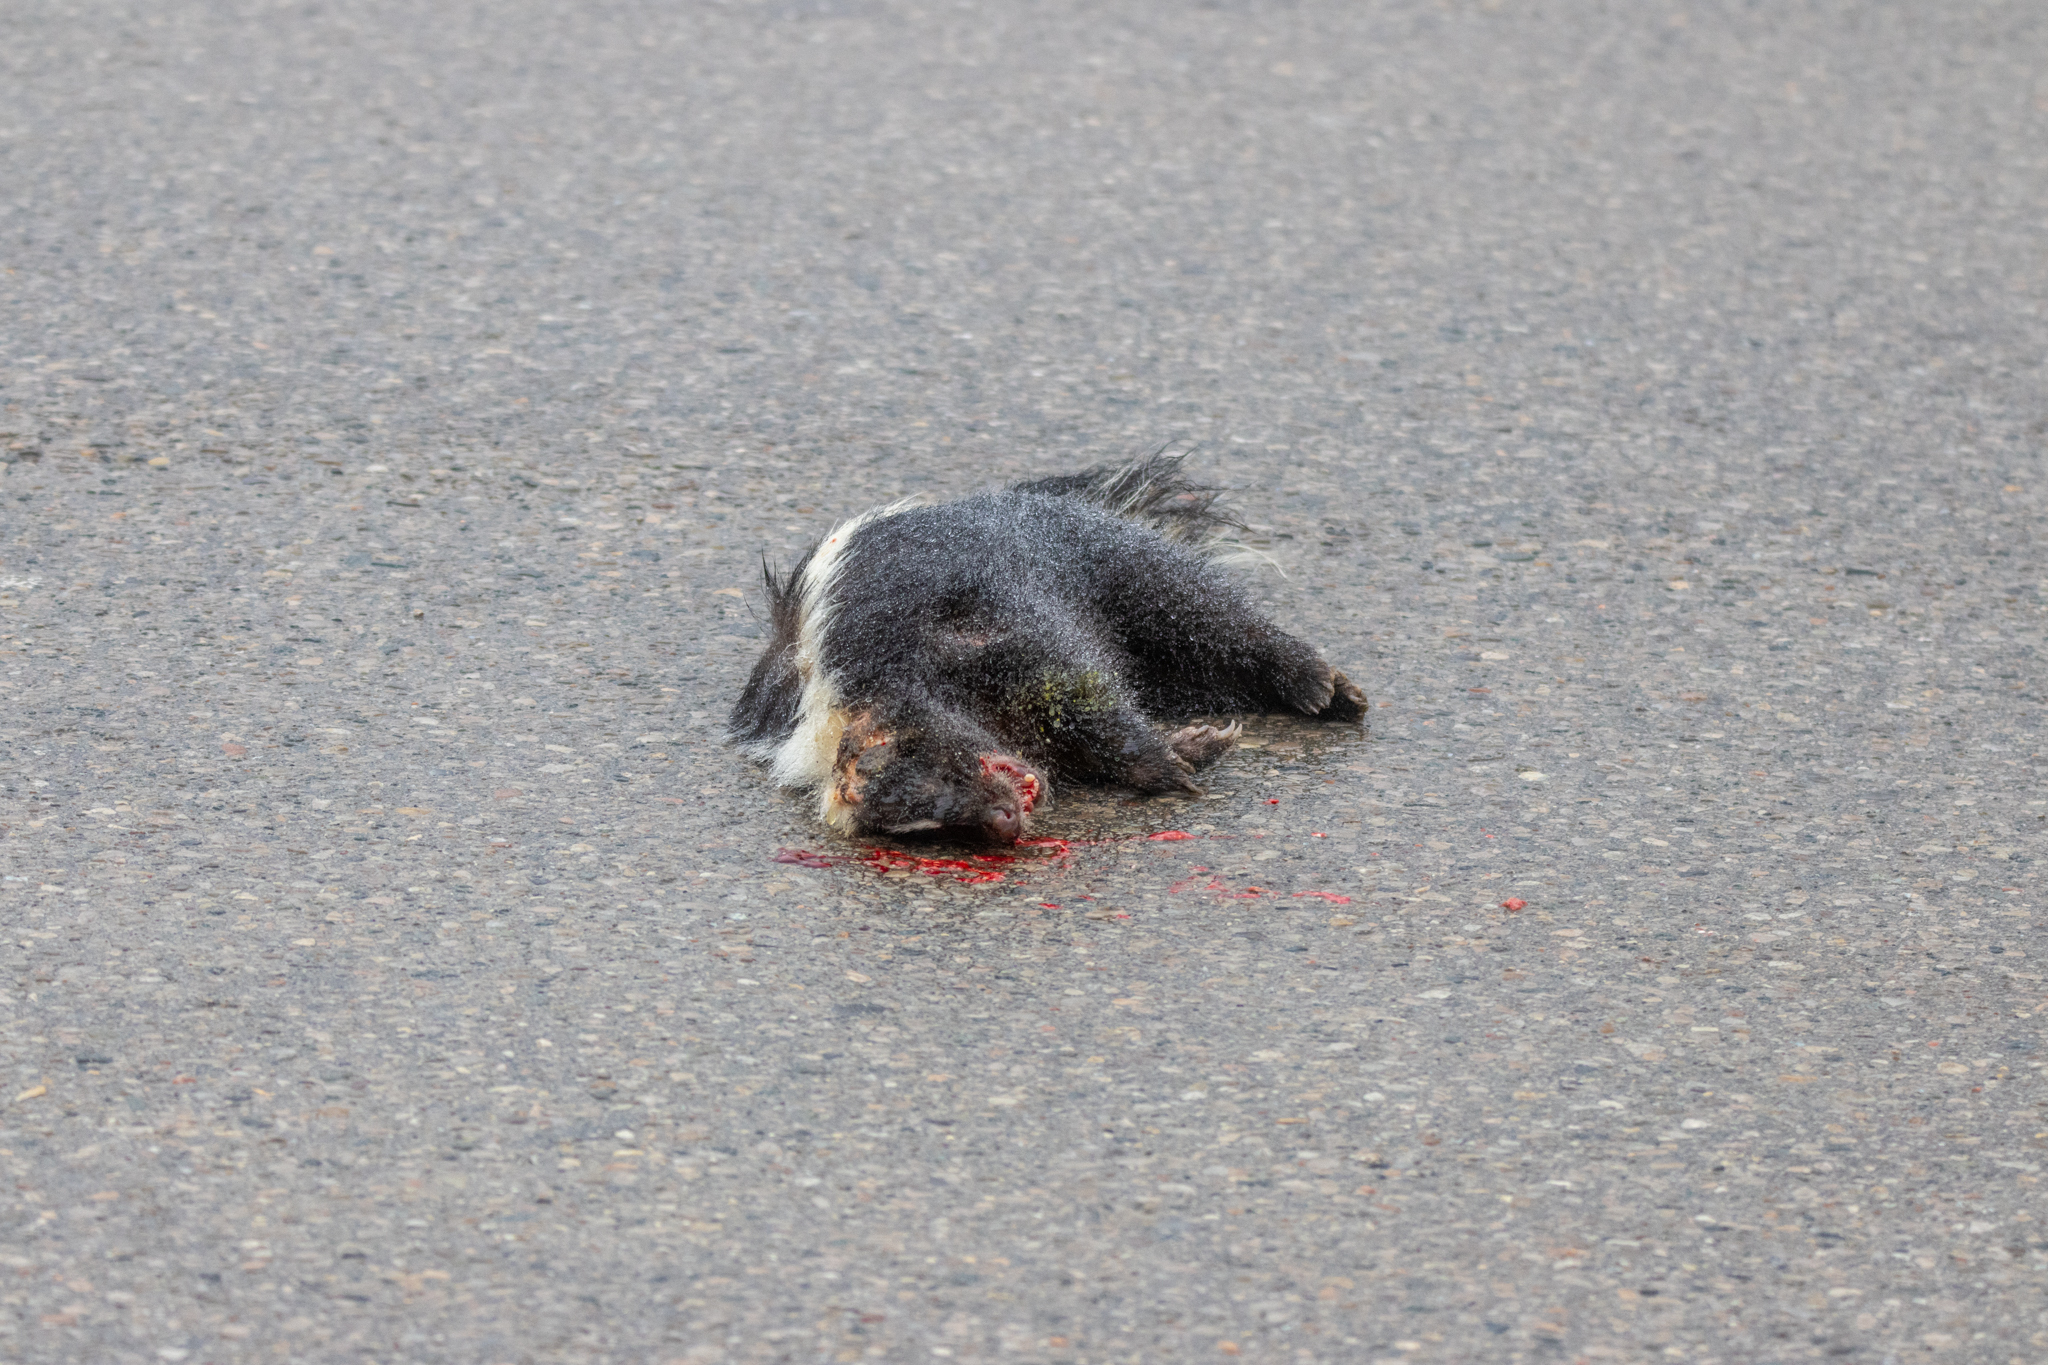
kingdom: Animalia
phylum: Chordata
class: Mammalia
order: Carnivora
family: Mephitidae
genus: Mephitis
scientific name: Mephitis mephitis
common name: Striped skunk
